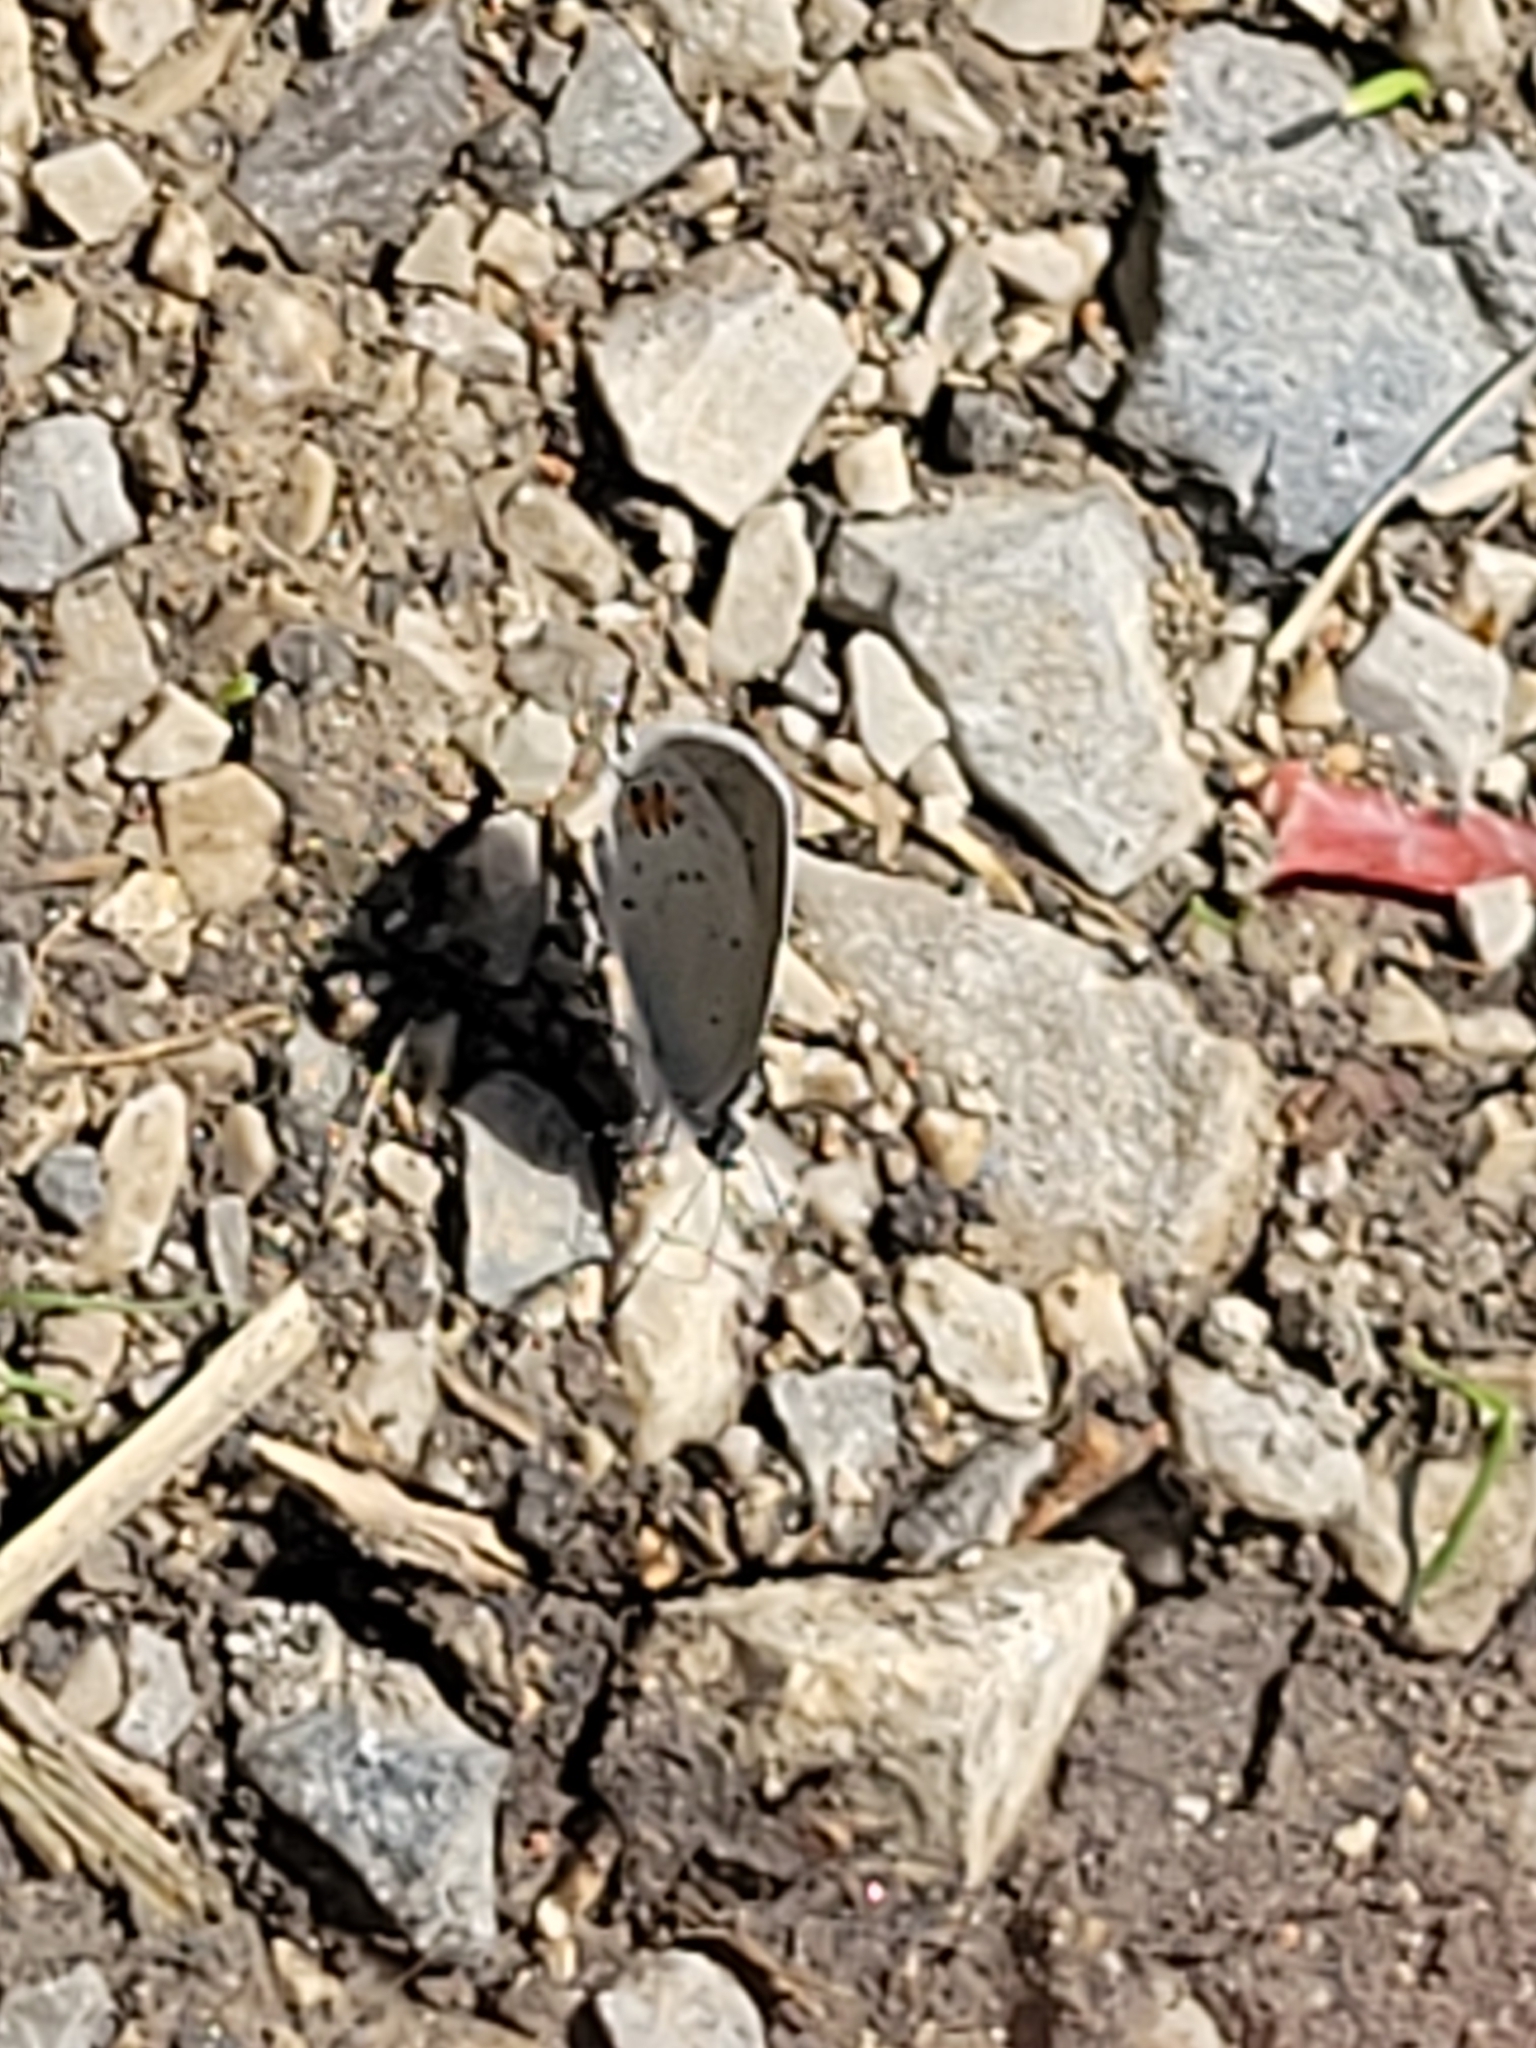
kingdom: Animalia
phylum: Arthropoda
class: Insecta
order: Lepidoptera
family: Lycaenidae
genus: Elkalyce
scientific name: Elkalyce argiades
